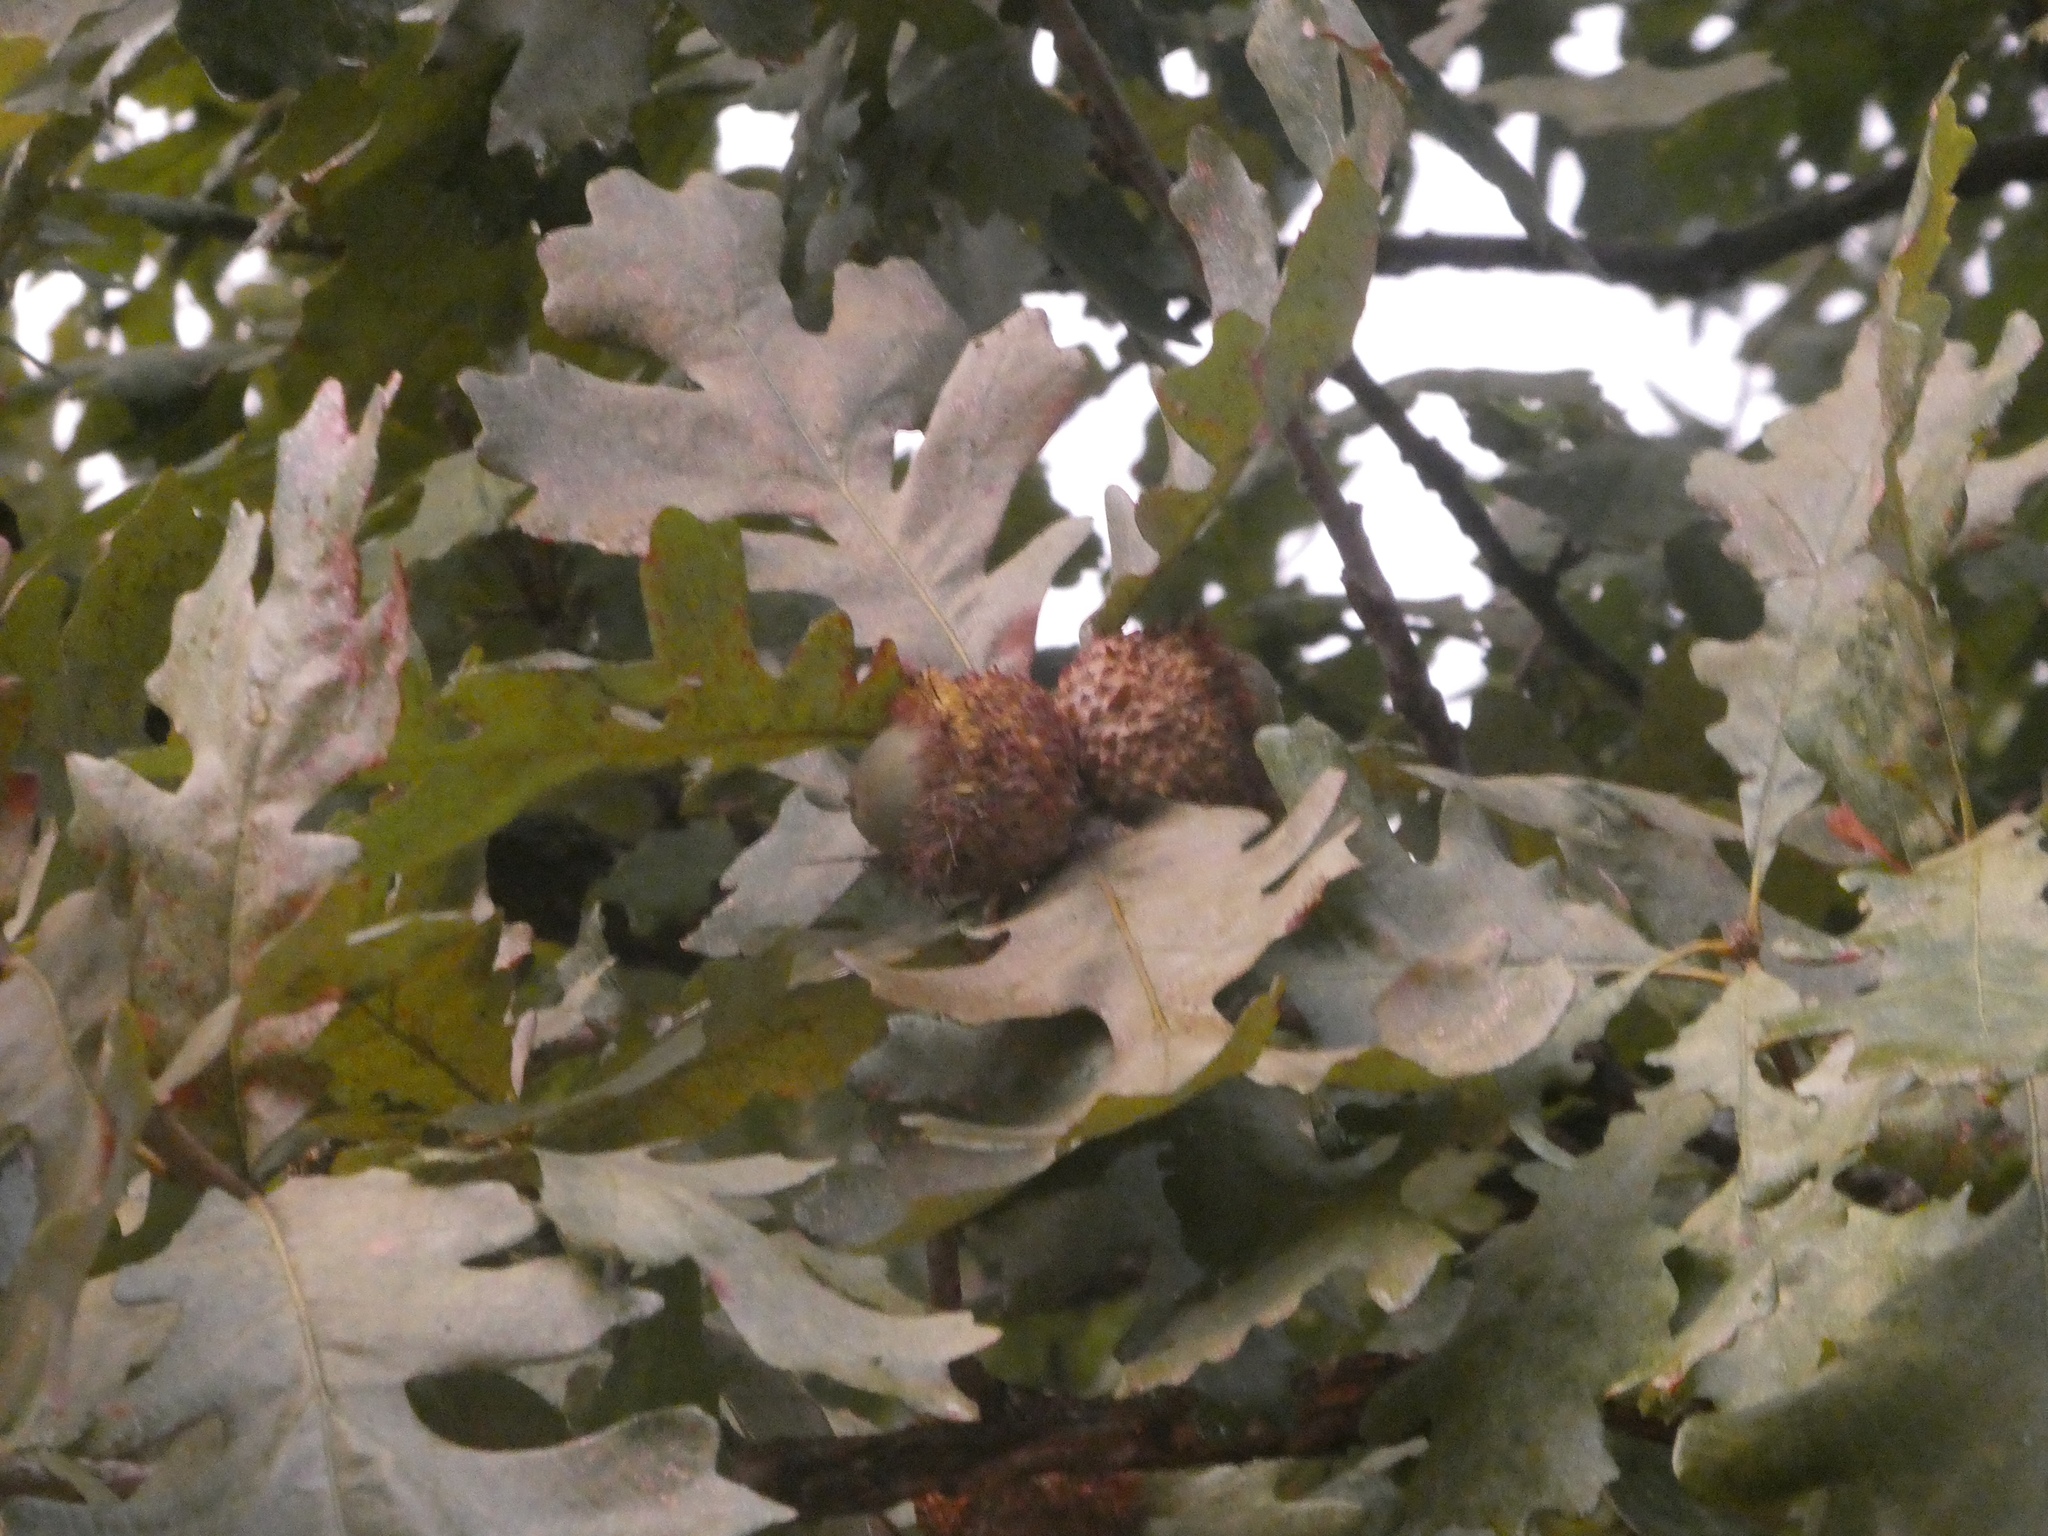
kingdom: Plantae
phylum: Tracheophyta
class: Magnoliopsida
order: Fagales
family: Fagaceae
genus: Quercus
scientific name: Quercus macrocarpa
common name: Bur oak
